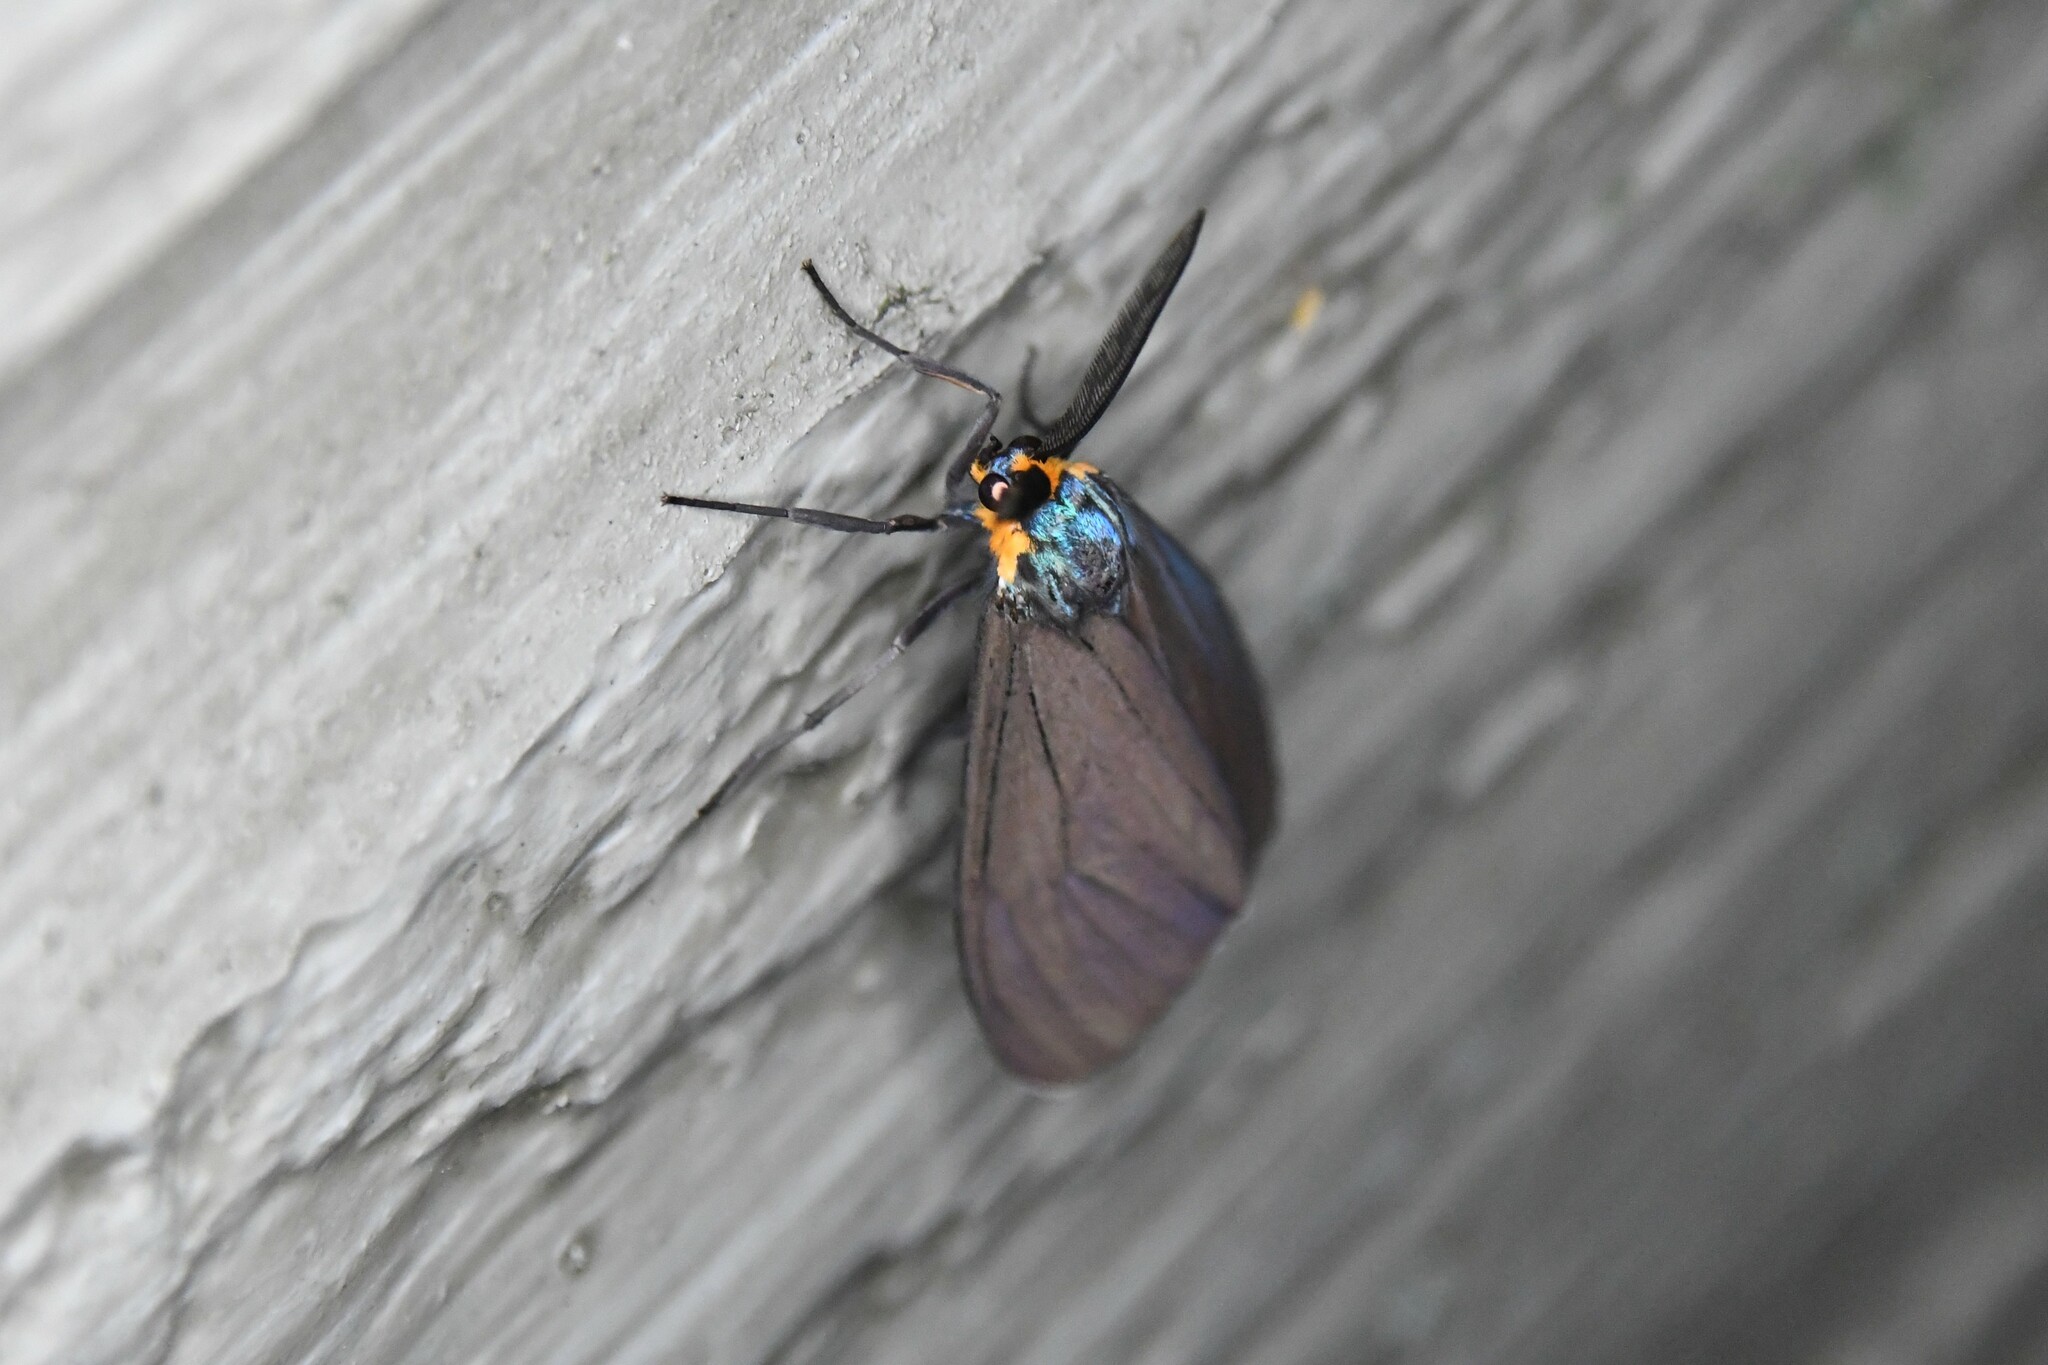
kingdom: Animalia
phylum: Arthropoda
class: Insecta
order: Lepidoptera
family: Erebidae
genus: Ctenucha
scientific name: Ctenucha virginica
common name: Virginia ctenucha moth
